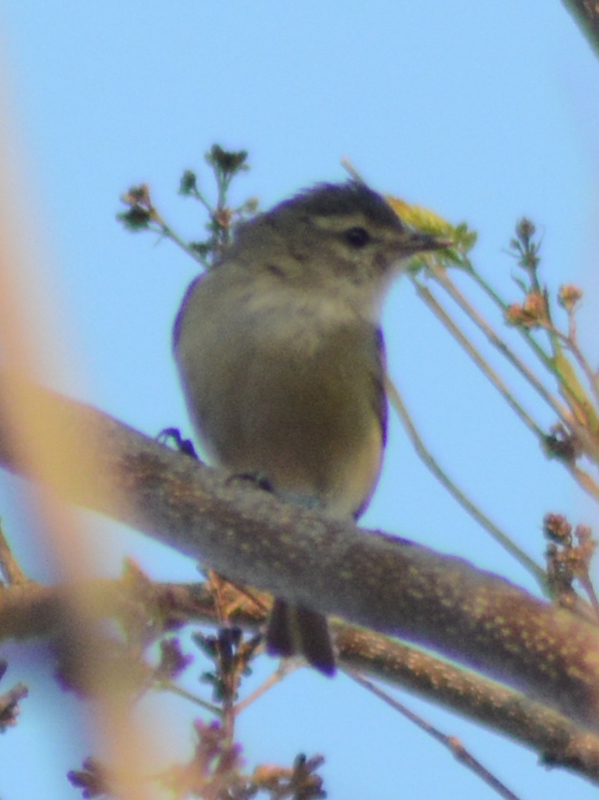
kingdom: Animalia
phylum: Chordata
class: Aves
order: Passeriformes
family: Vireonidae
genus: Vireo
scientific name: Vireo gilvus
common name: Warbling vireo
